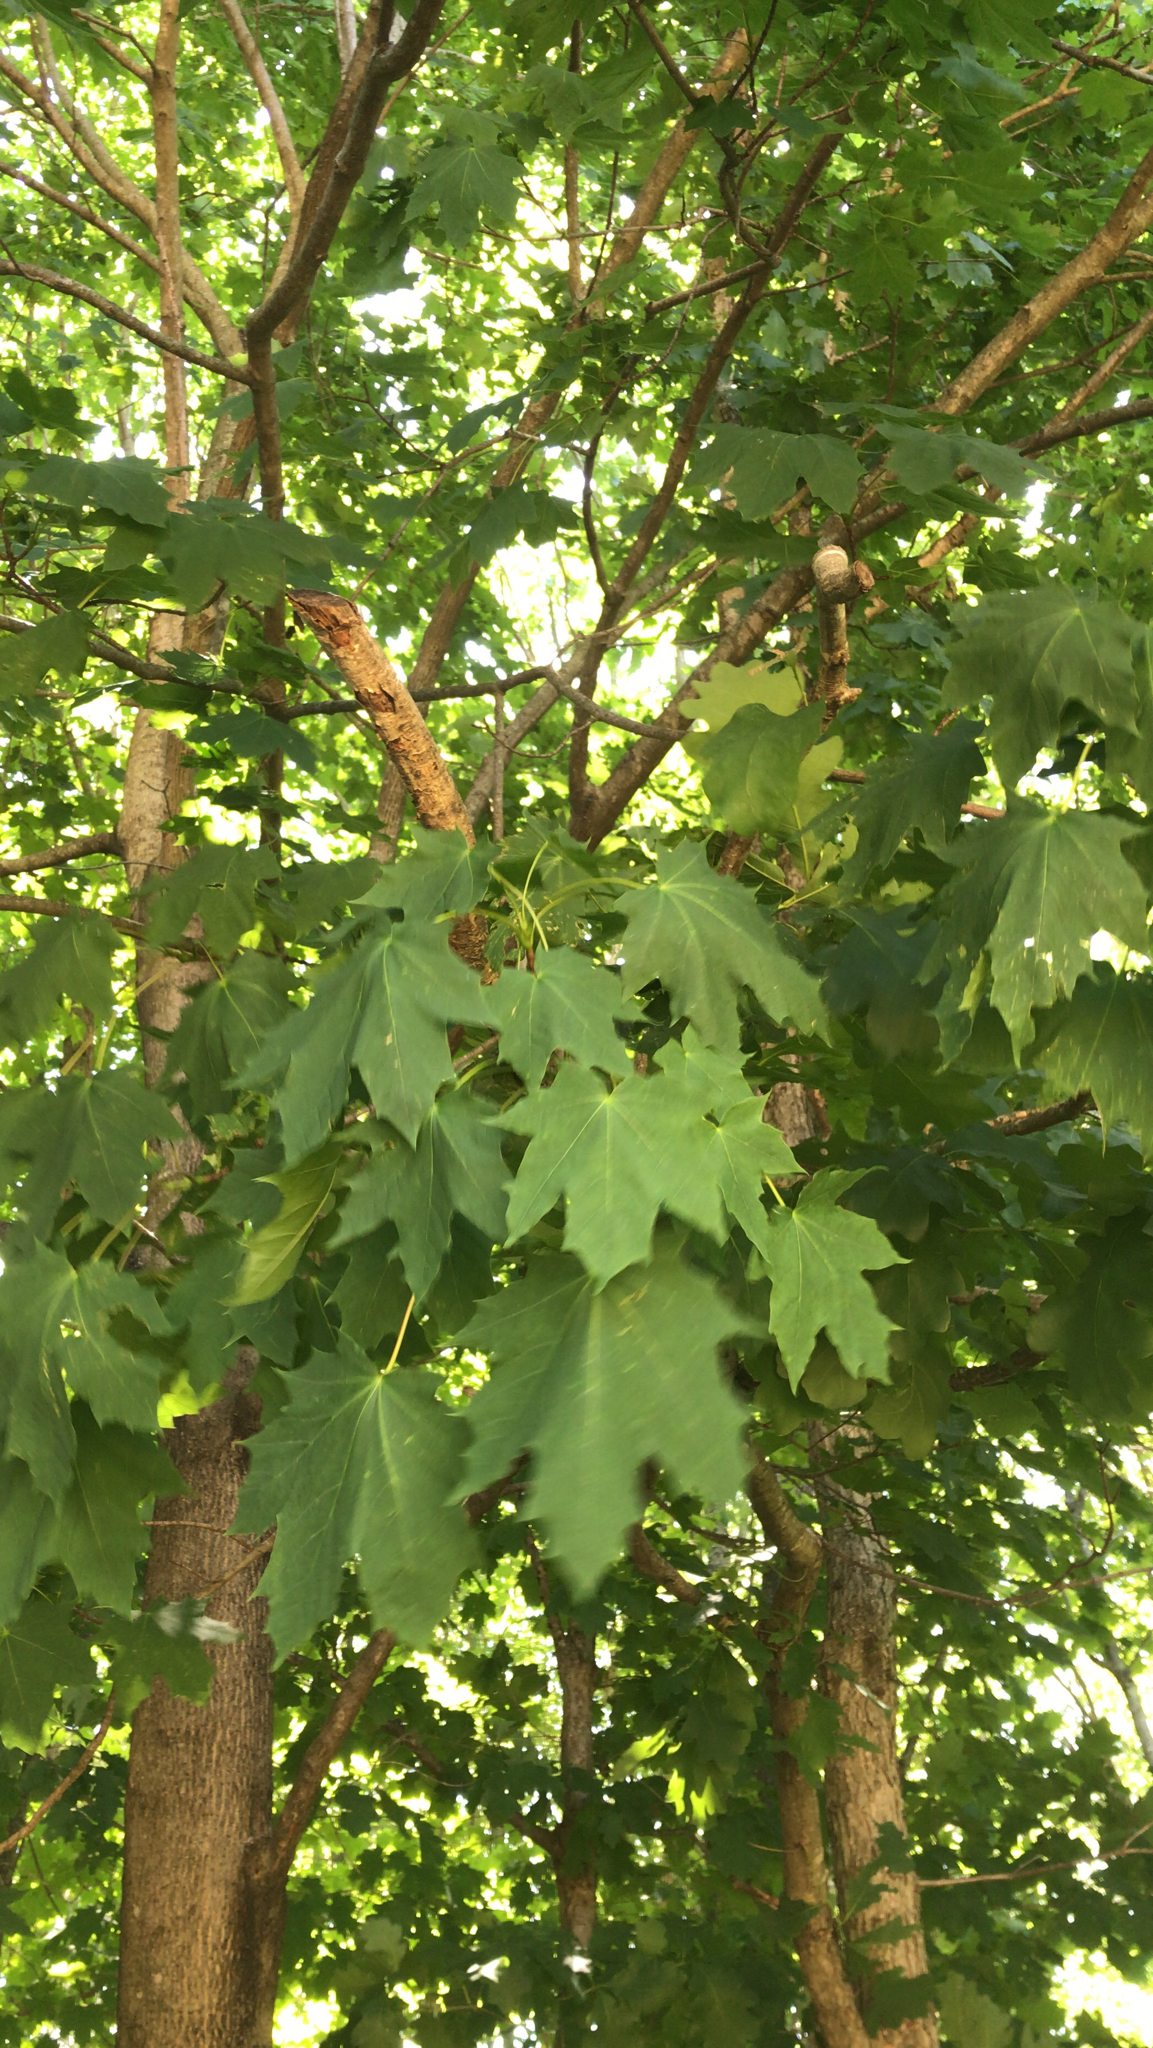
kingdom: Plantae
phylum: Tracheophyta
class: Magnoliopsida
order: Sapindales
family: Sapindaceae
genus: Acer
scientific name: Acer platanoides
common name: Norway maple
